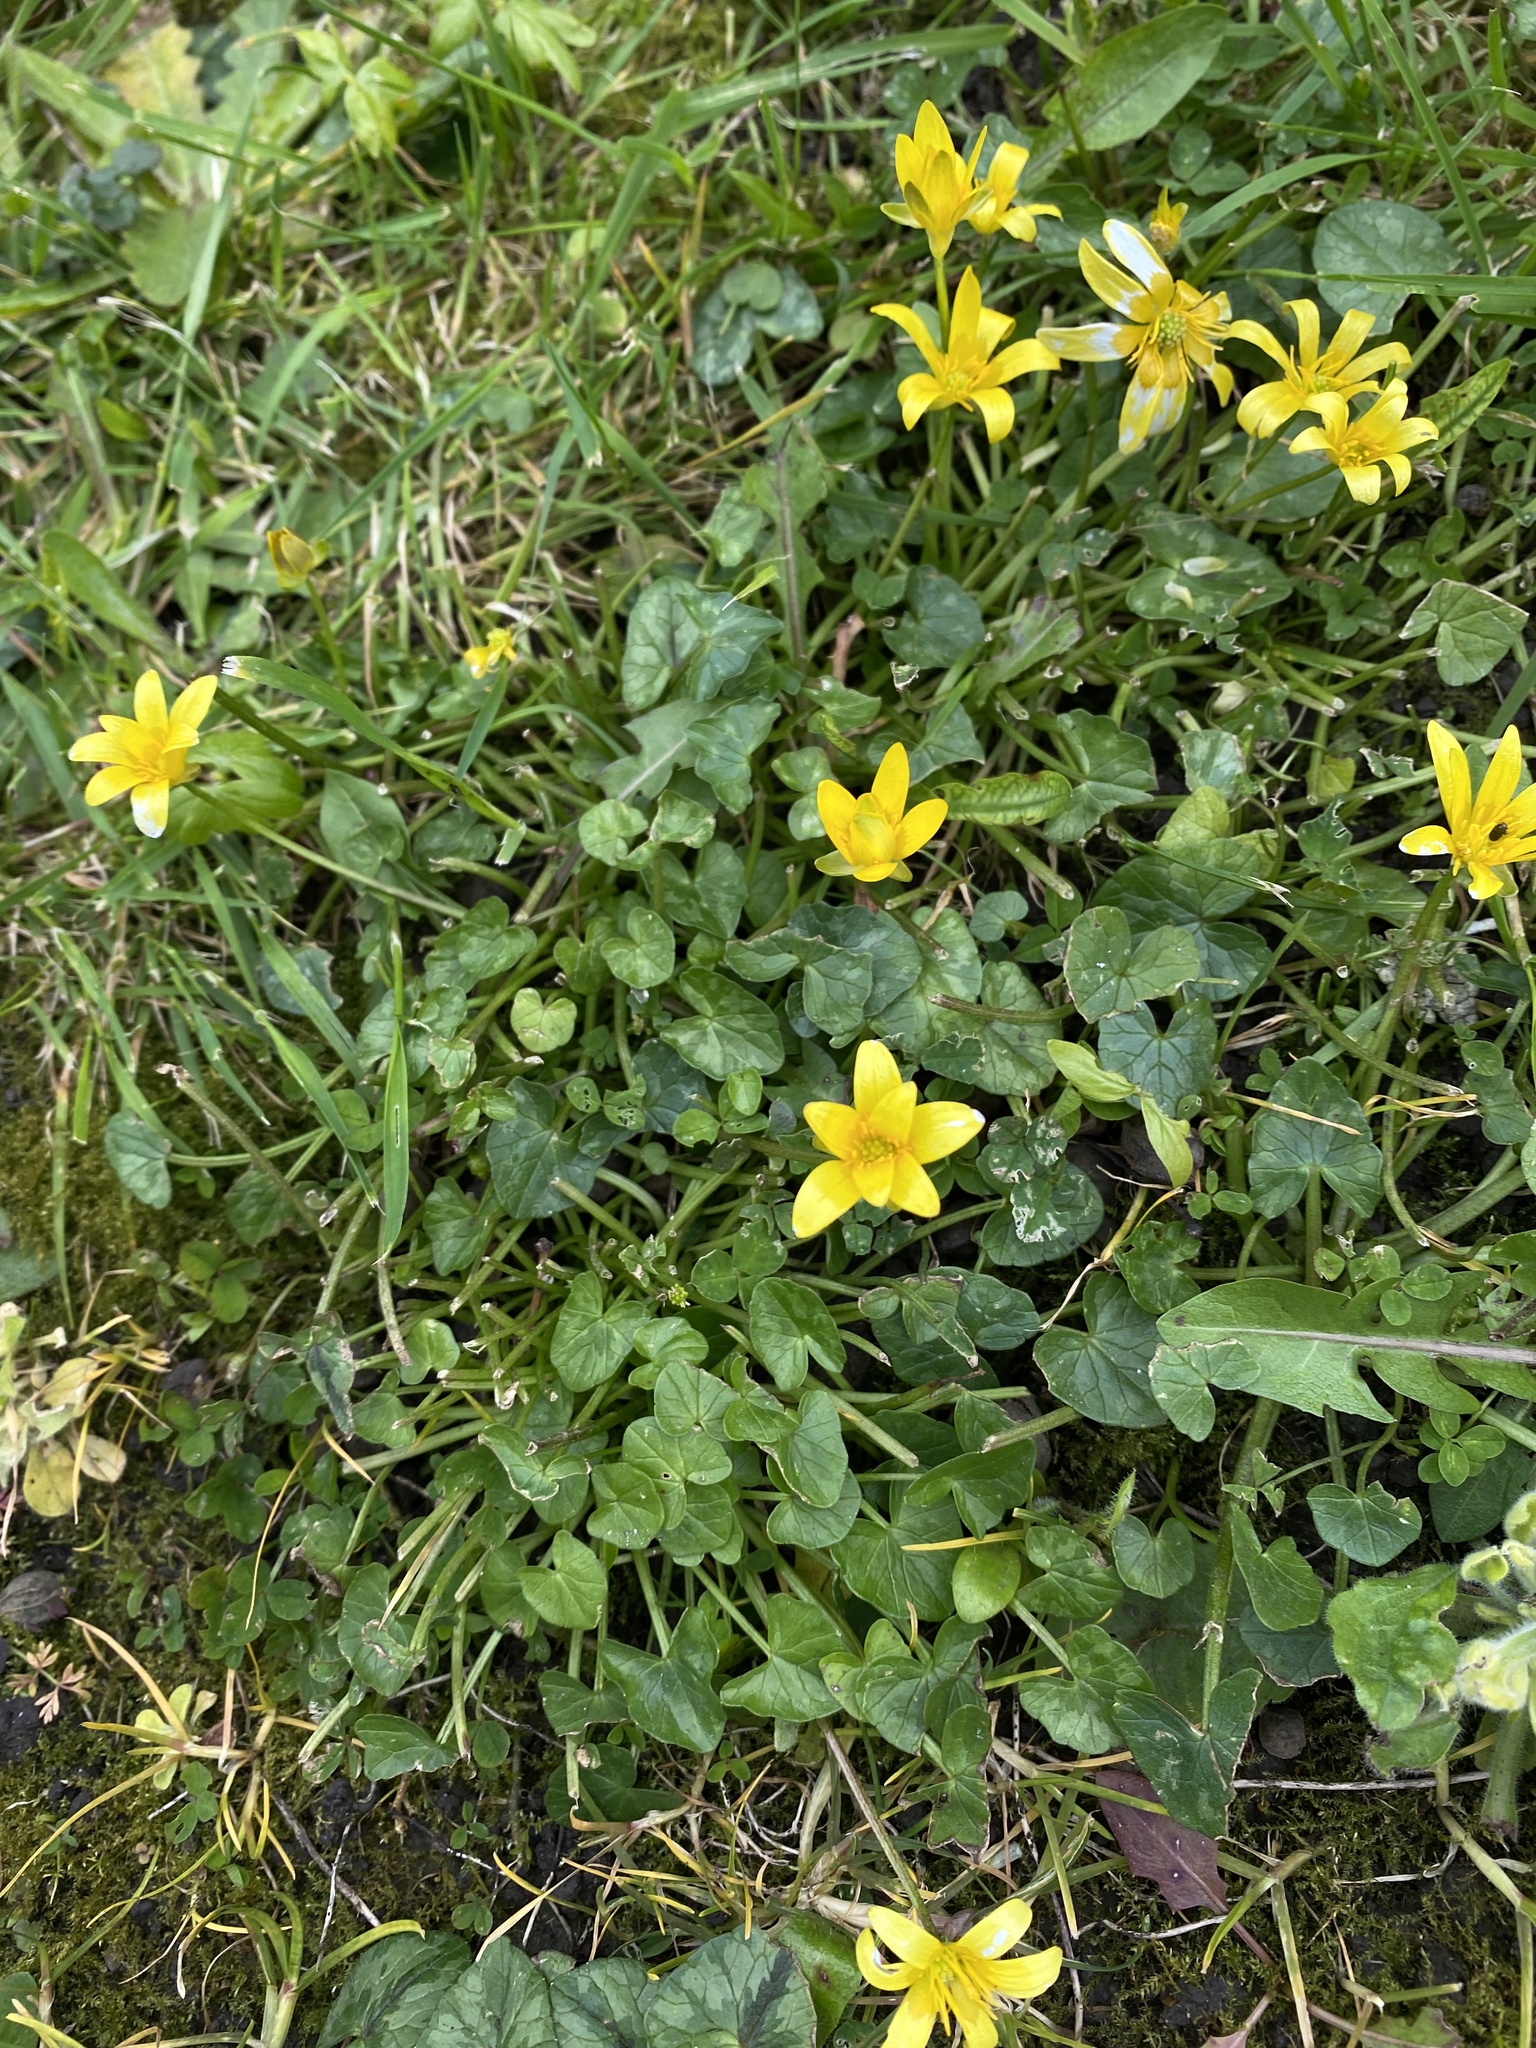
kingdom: Plantae
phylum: Tracheophyta
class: Magnoliopsida
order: Ranunculales
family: Ranunculaceae
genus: Ficaria
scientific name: Ficaria verna
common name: Lesser celandine
